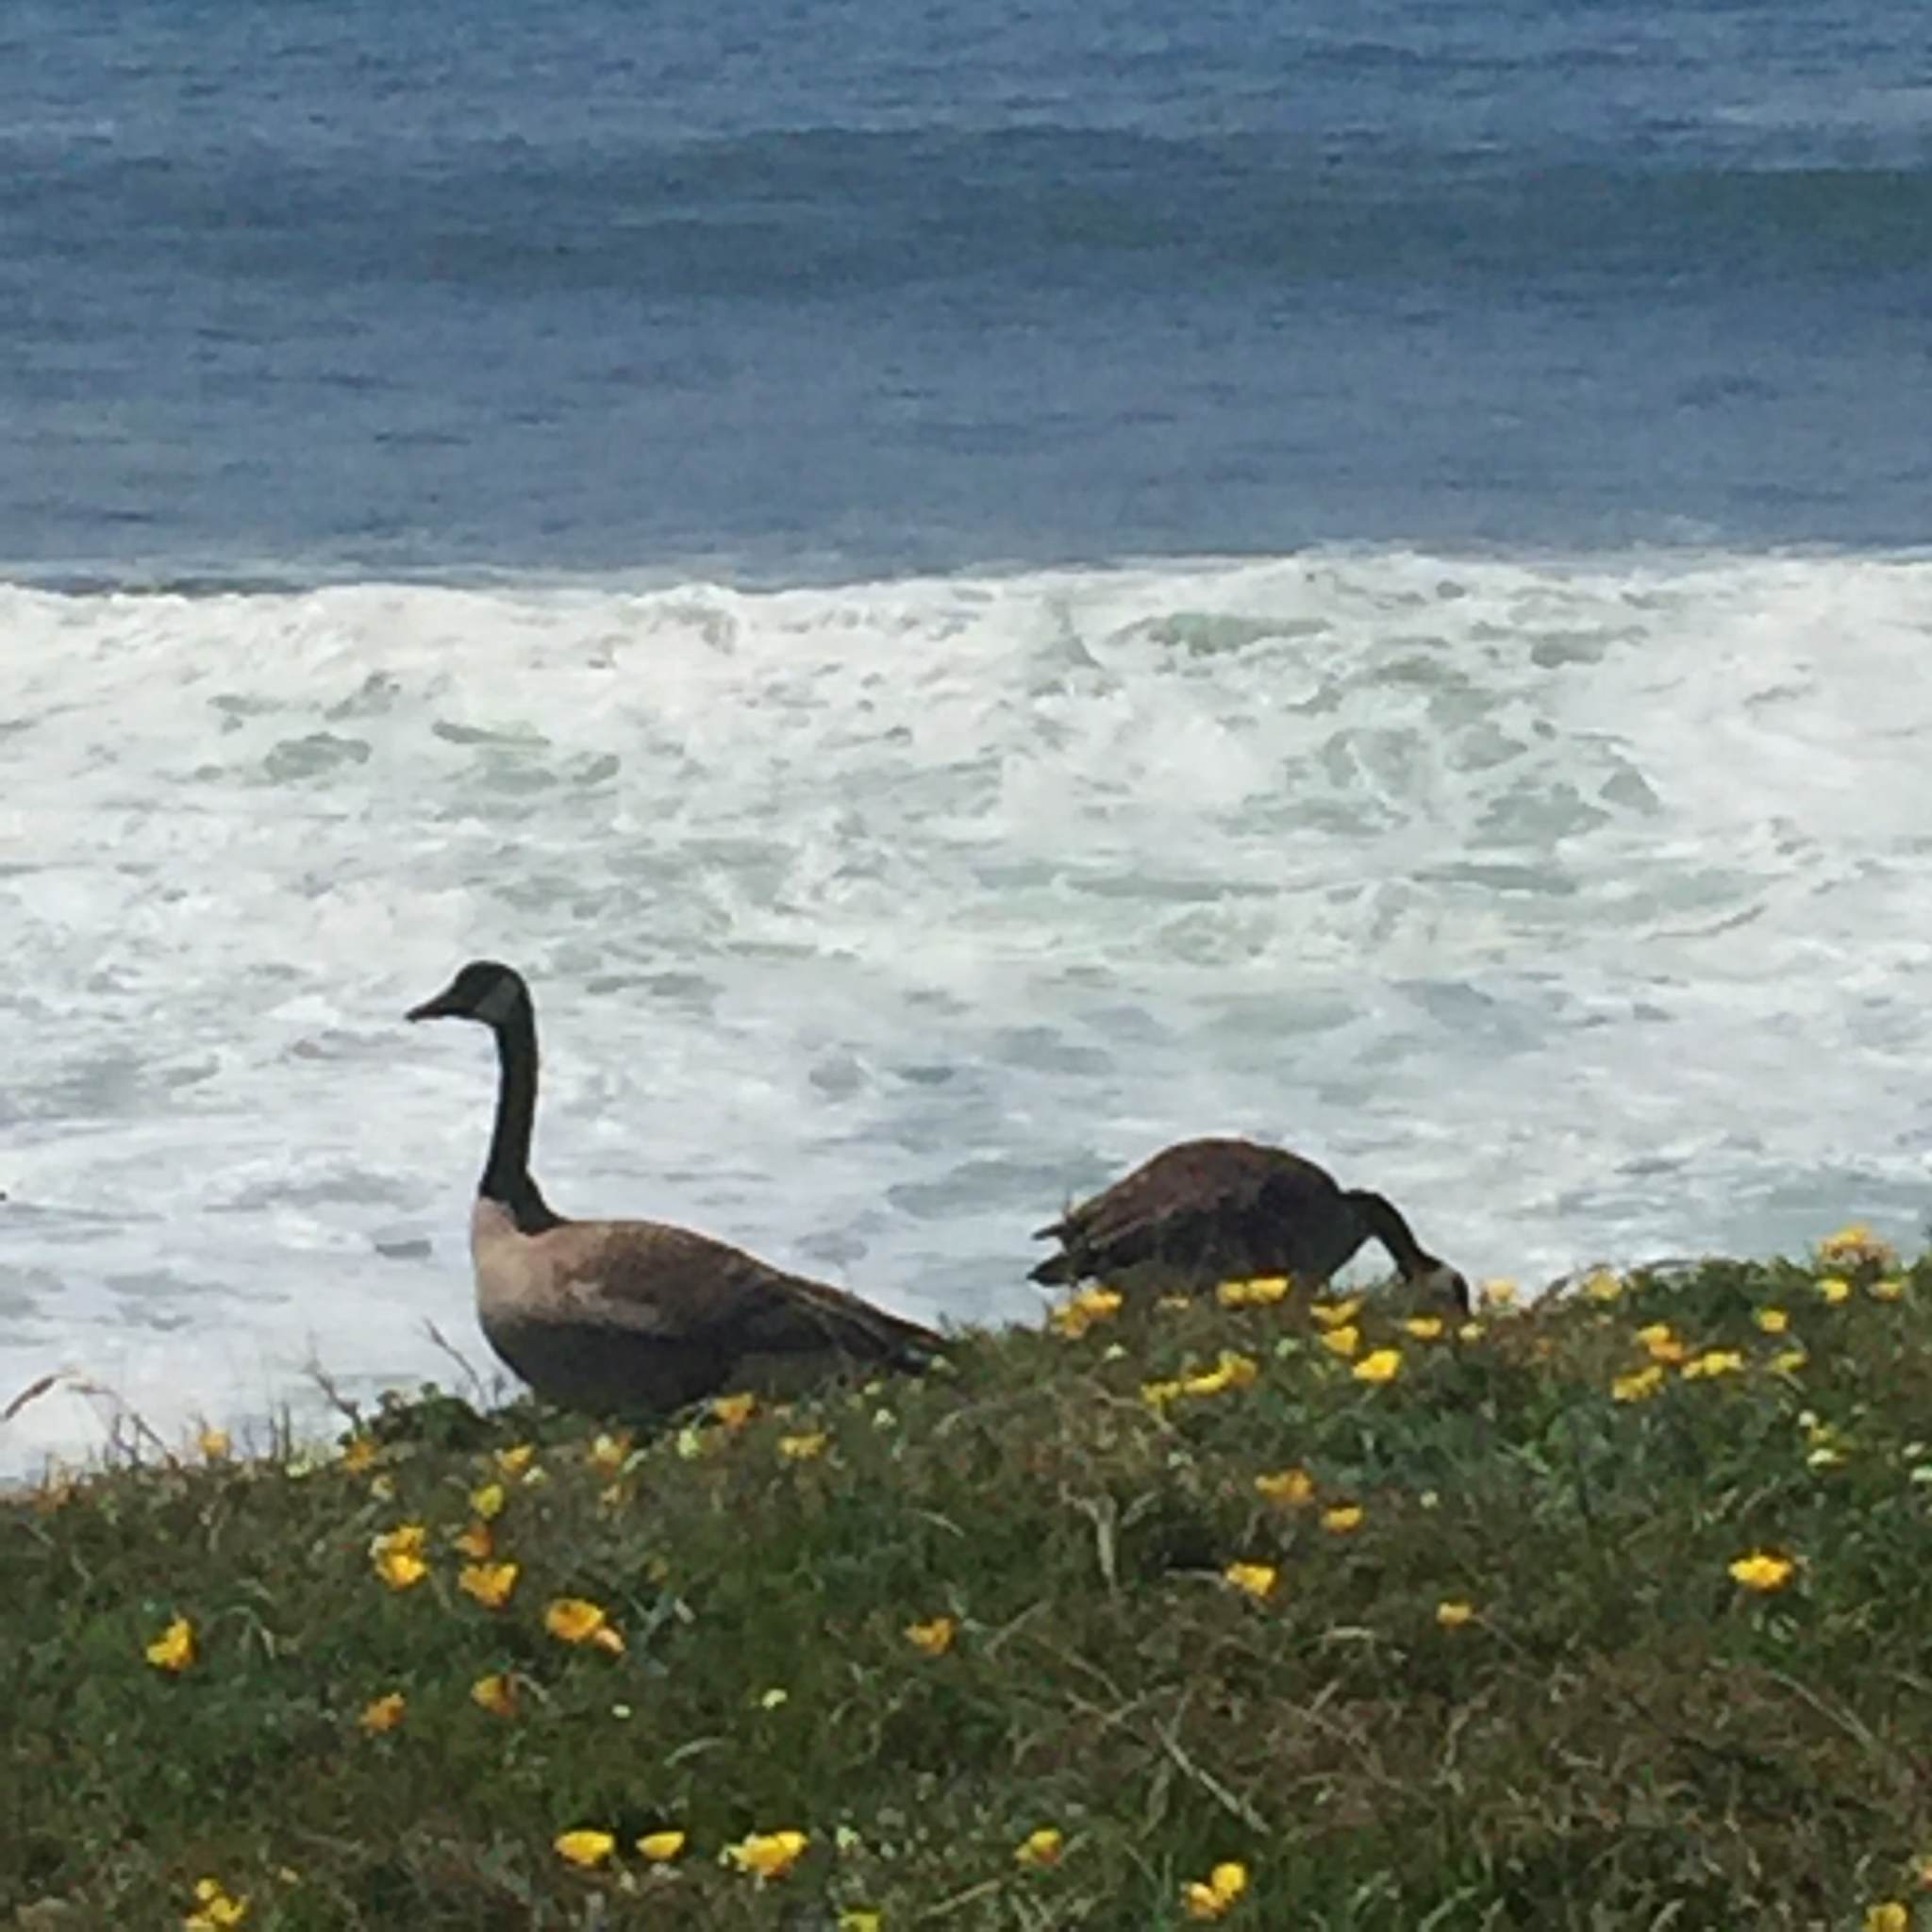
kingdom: Animalia
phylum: Chordata
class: Aves
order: Anseriformes
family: Anatidae
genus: Branta
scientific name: Branta canadensis
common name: Canada goose
